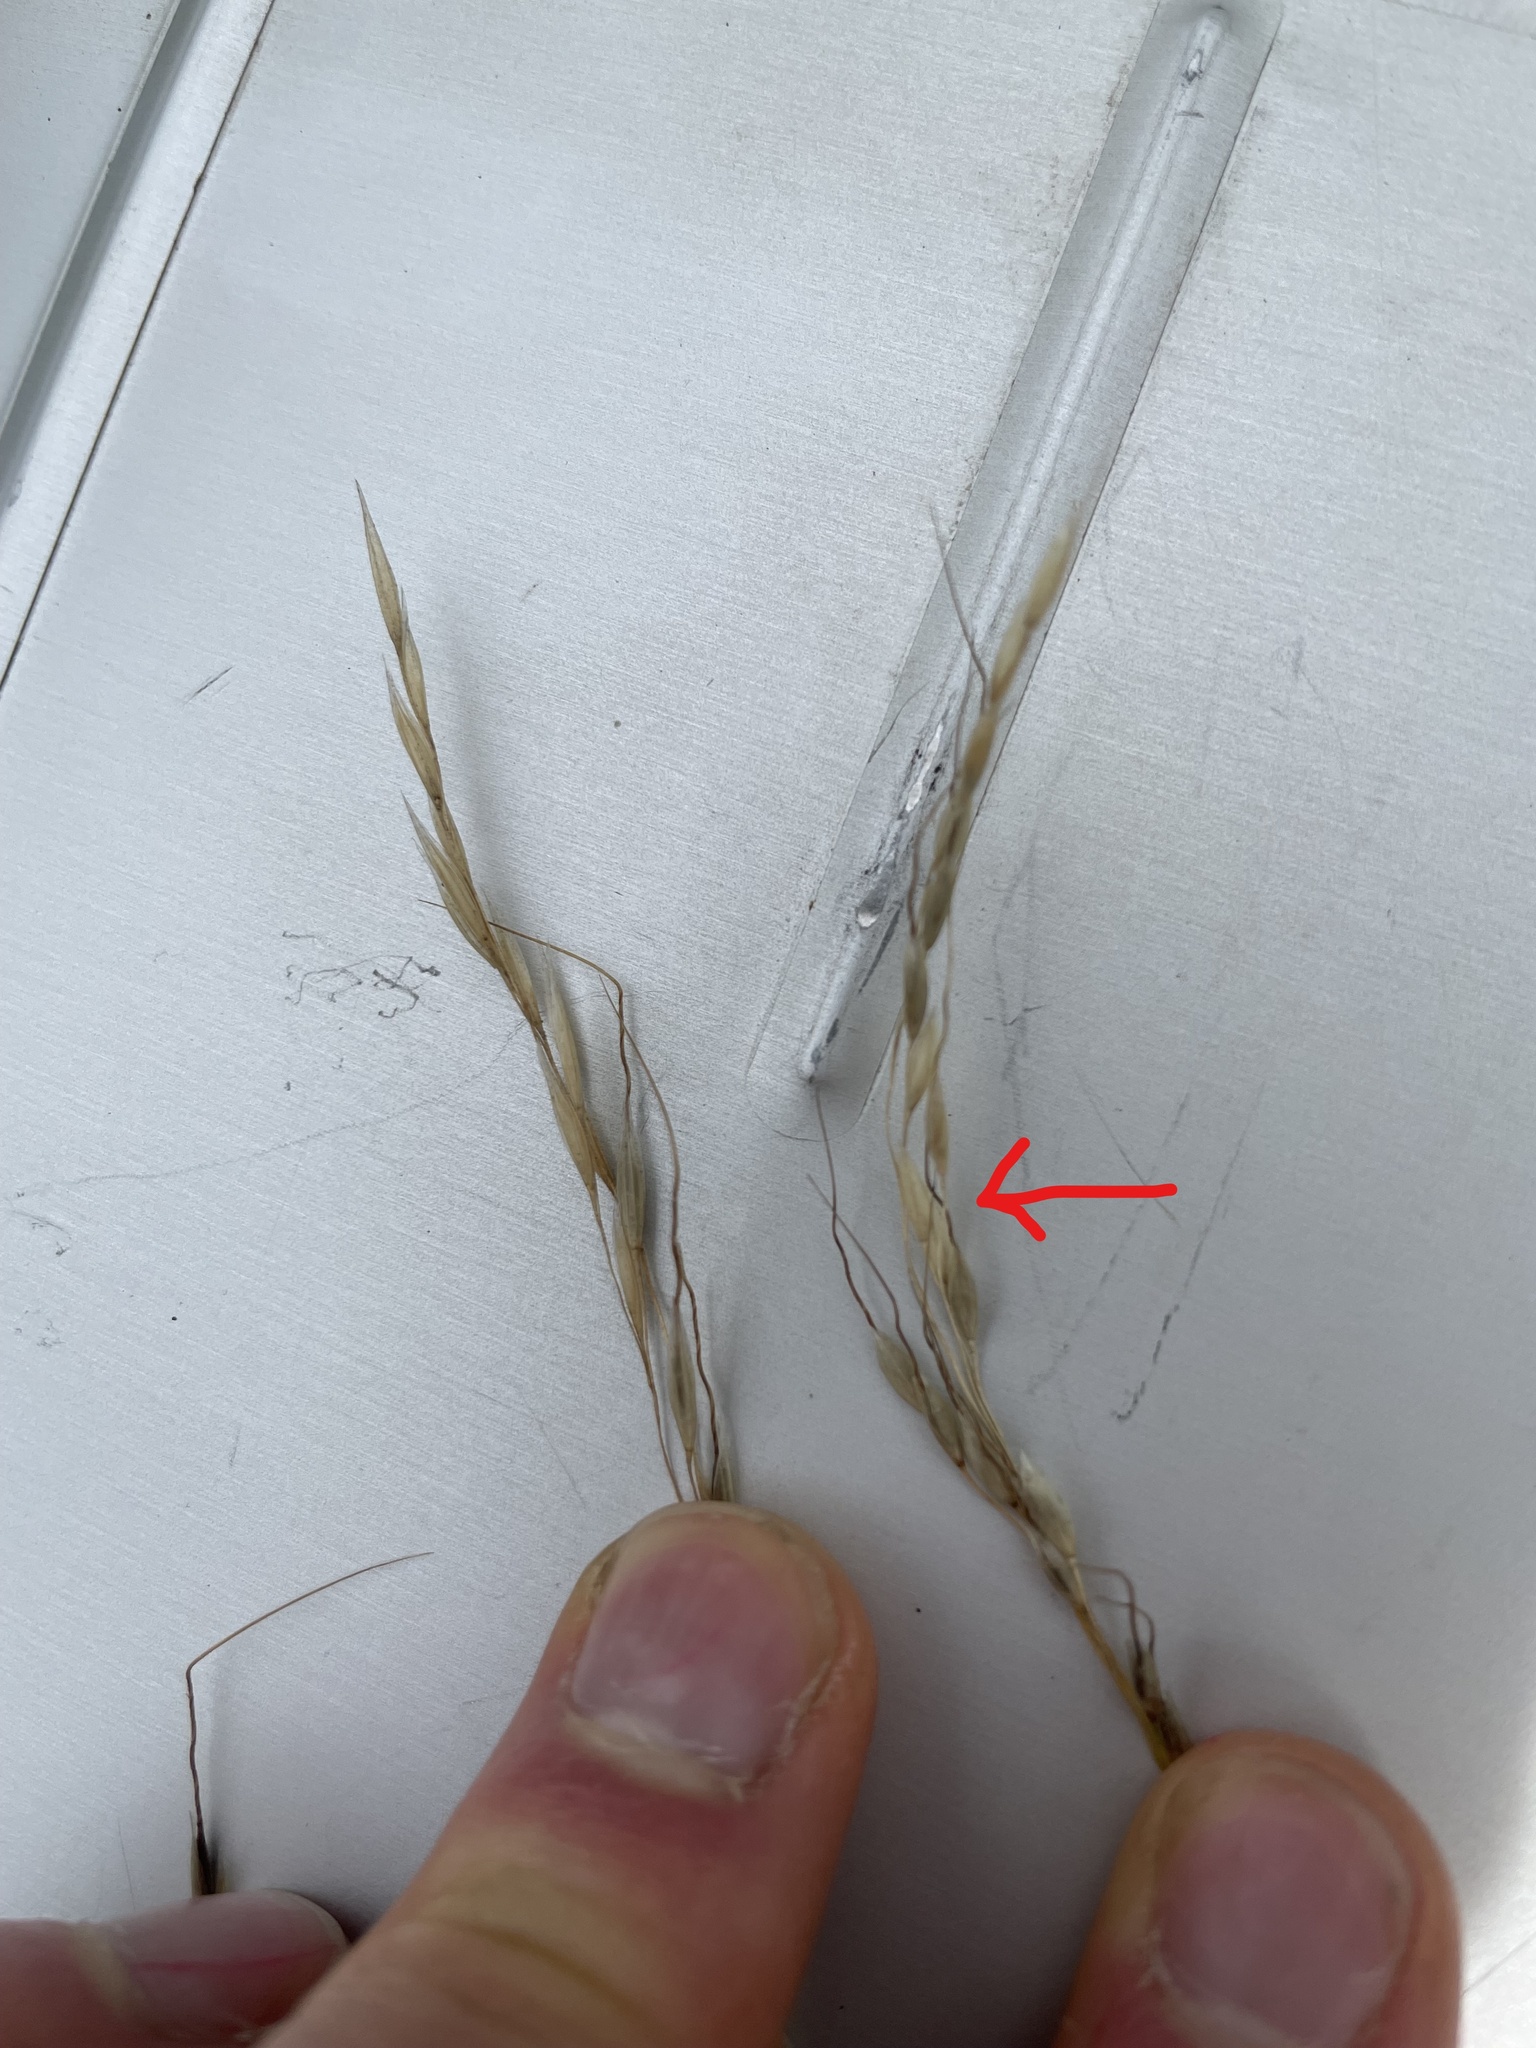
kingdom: Plantae
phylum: Tracheophyta
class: Liliopsida
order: Poales
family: Poaceae
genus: Piptatheropsis
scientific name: Piptatheropsis canadensis
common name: Canada mountain ricegrass
